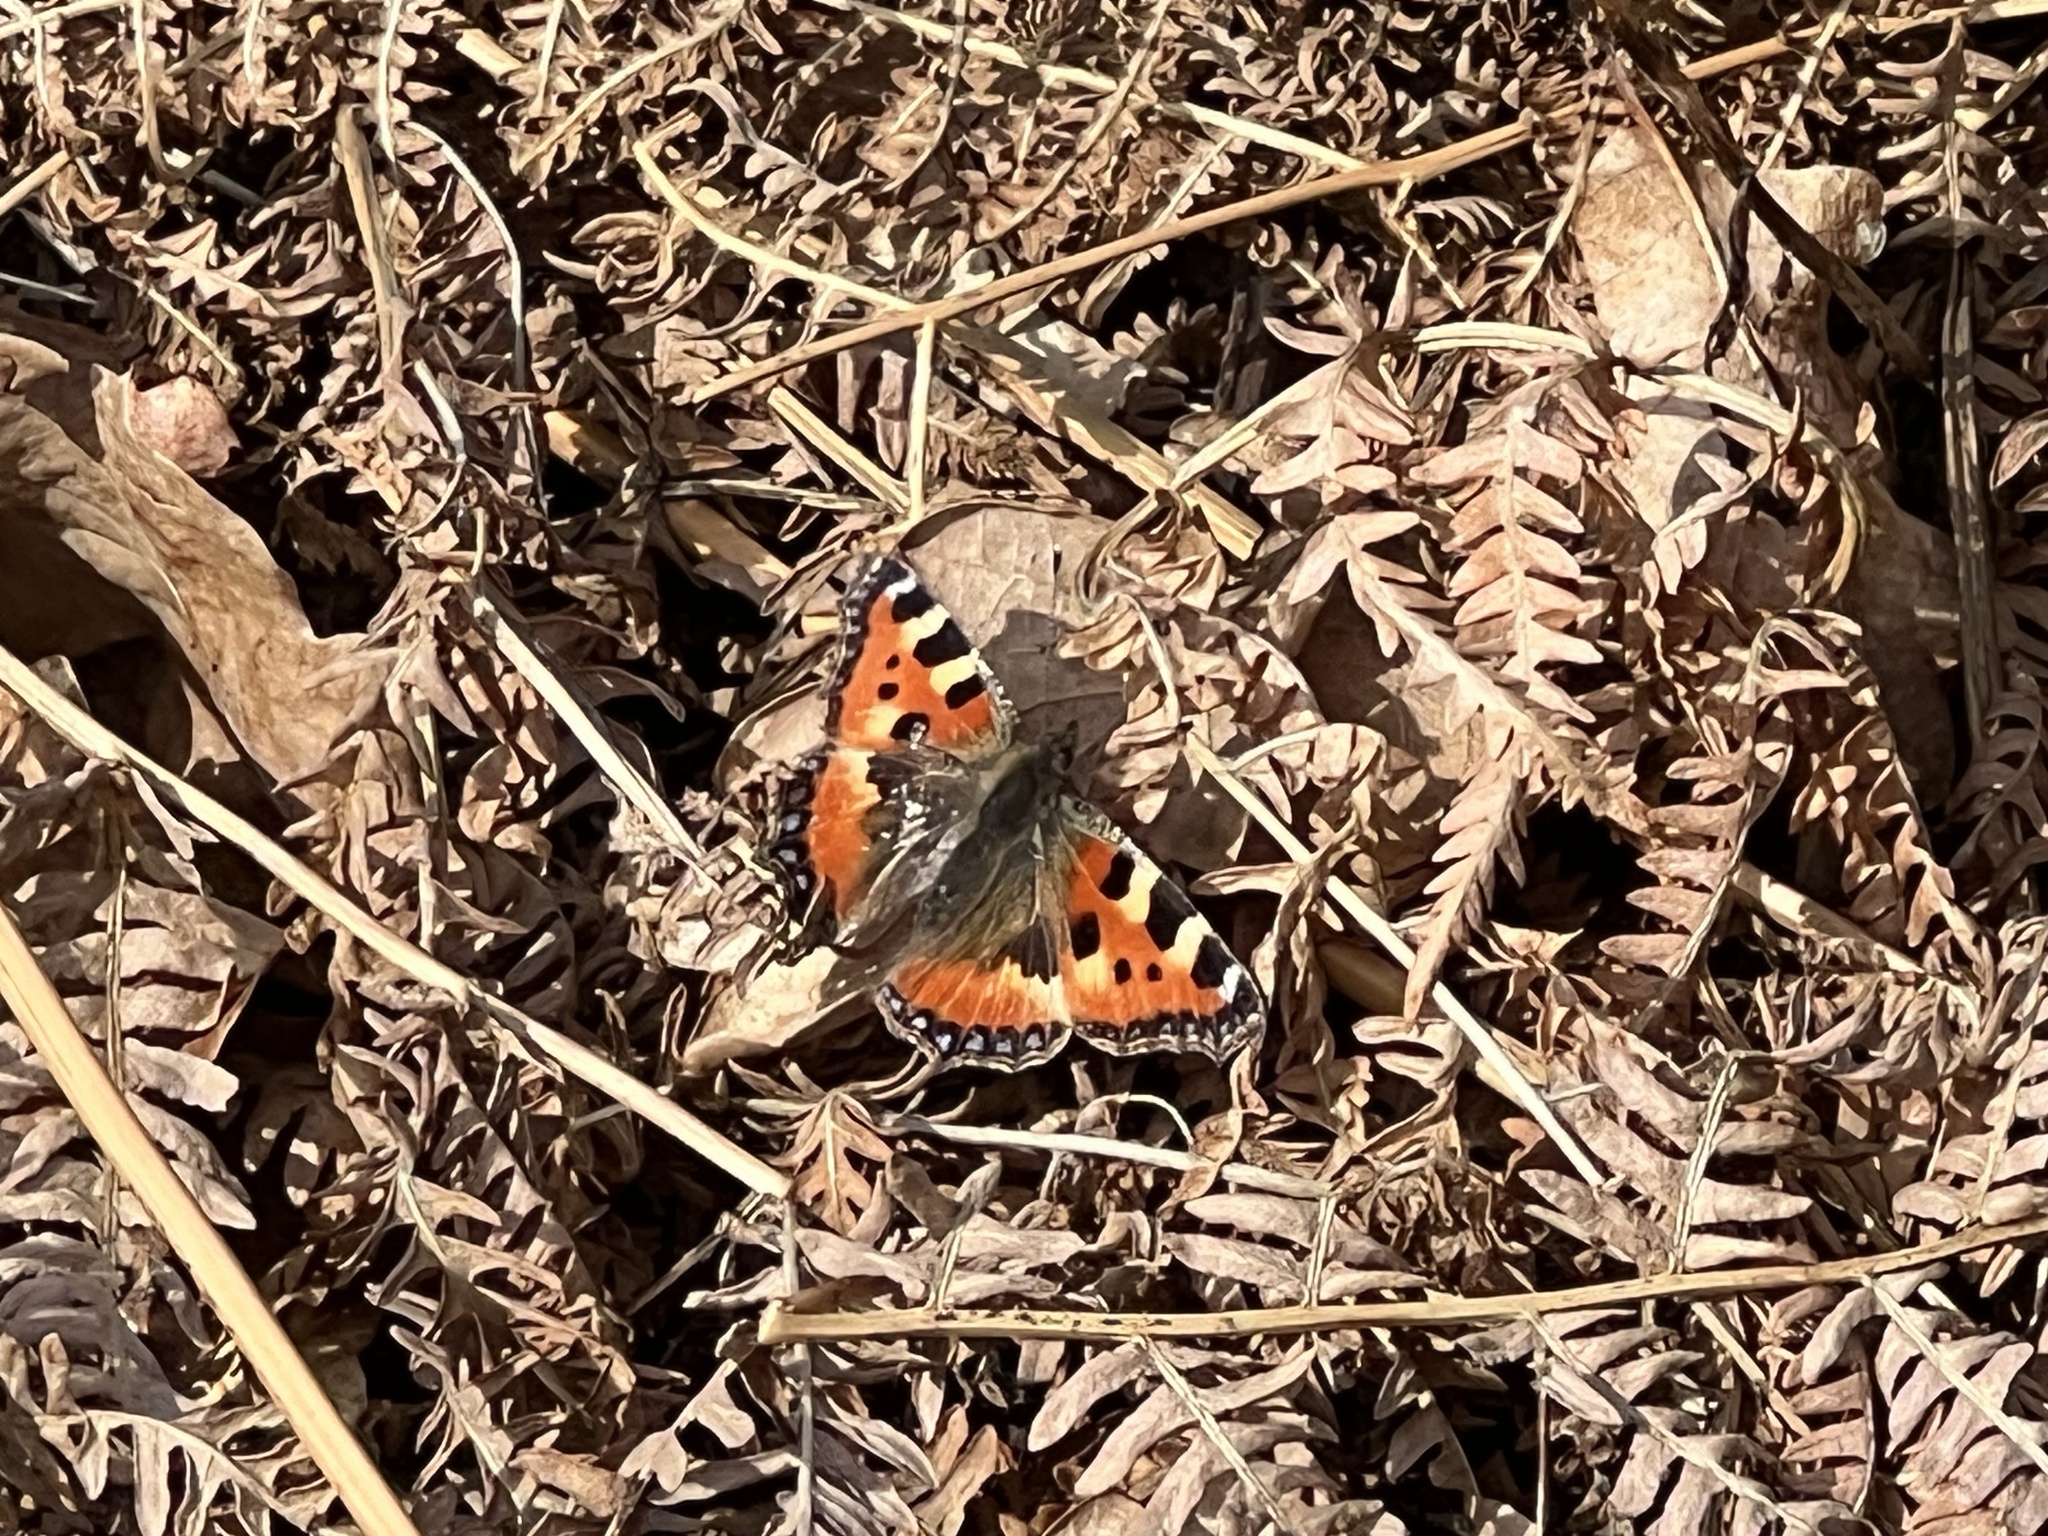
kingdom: Animalia
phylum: Arthropoda
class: Insecta
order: Lepidoptera
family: Nymphalidae
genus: Aglais
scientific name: Aglais urticae
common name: Small tortoiseshell
